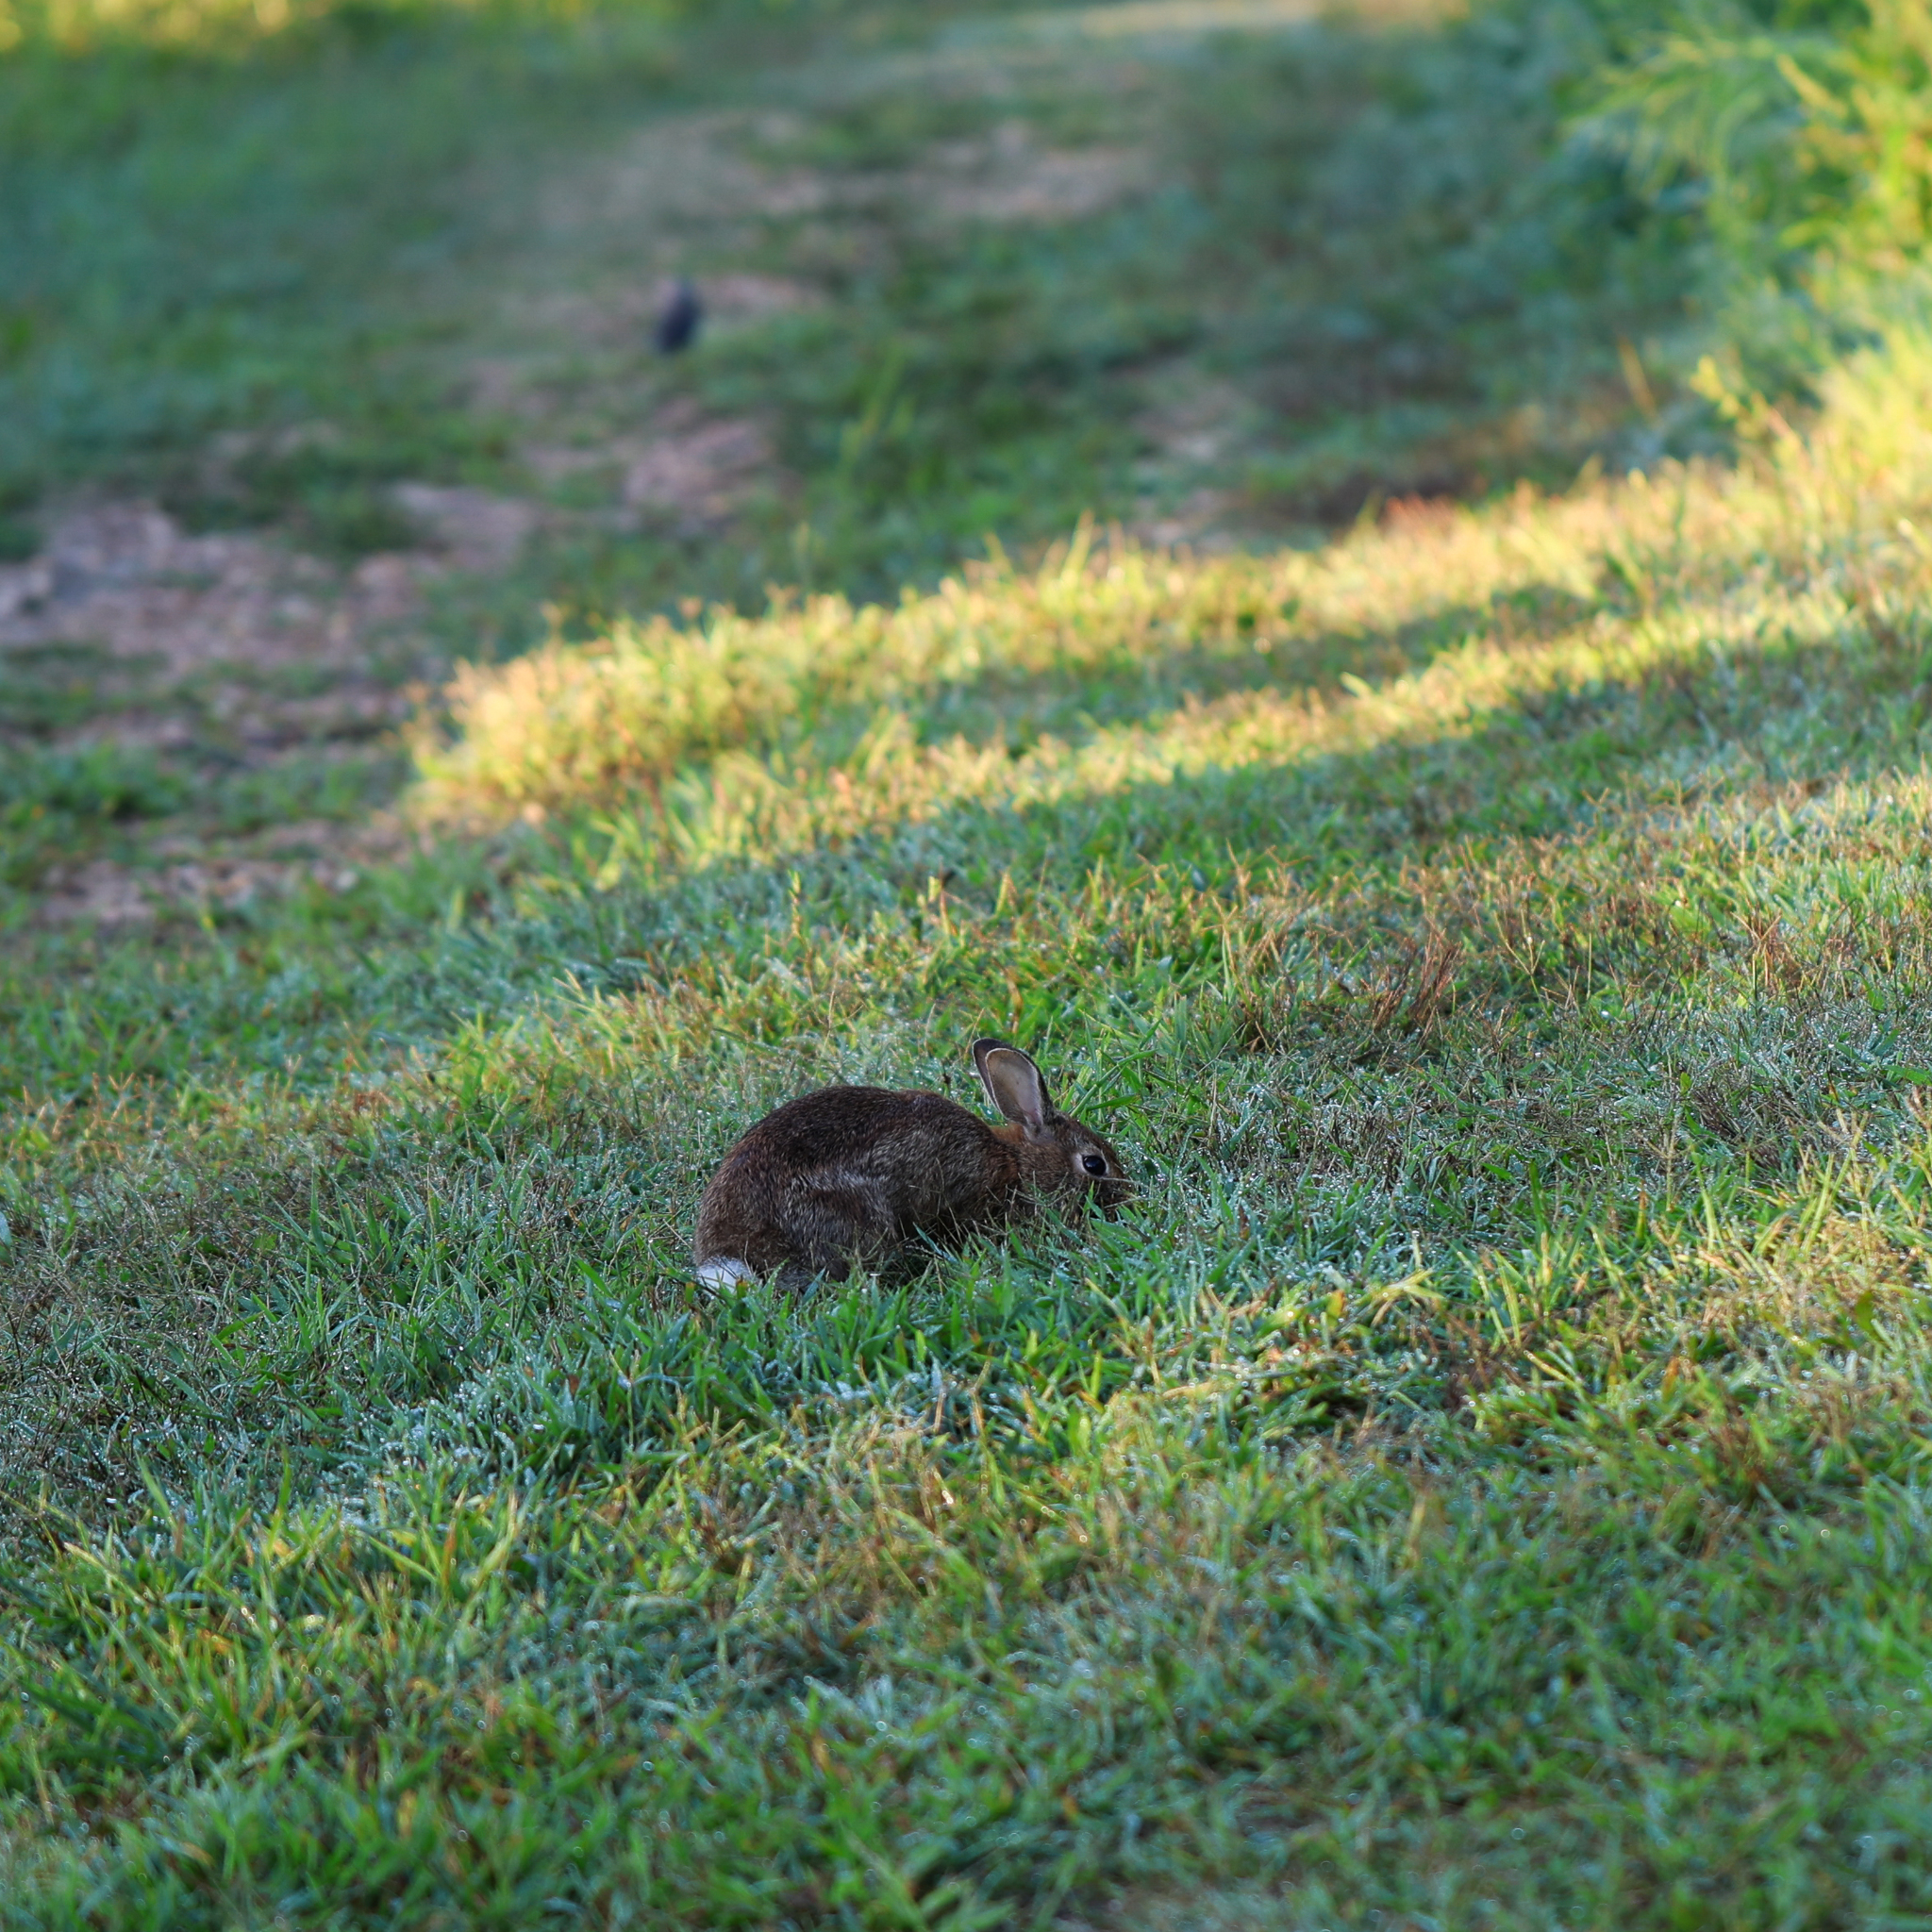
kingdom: Animalia
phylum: Chordata
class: Mammalia
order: Lagomorpha
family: Leporidae
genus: Sylvilagus
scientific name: Sylvilagus floridanus
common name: Eastern cottontail
